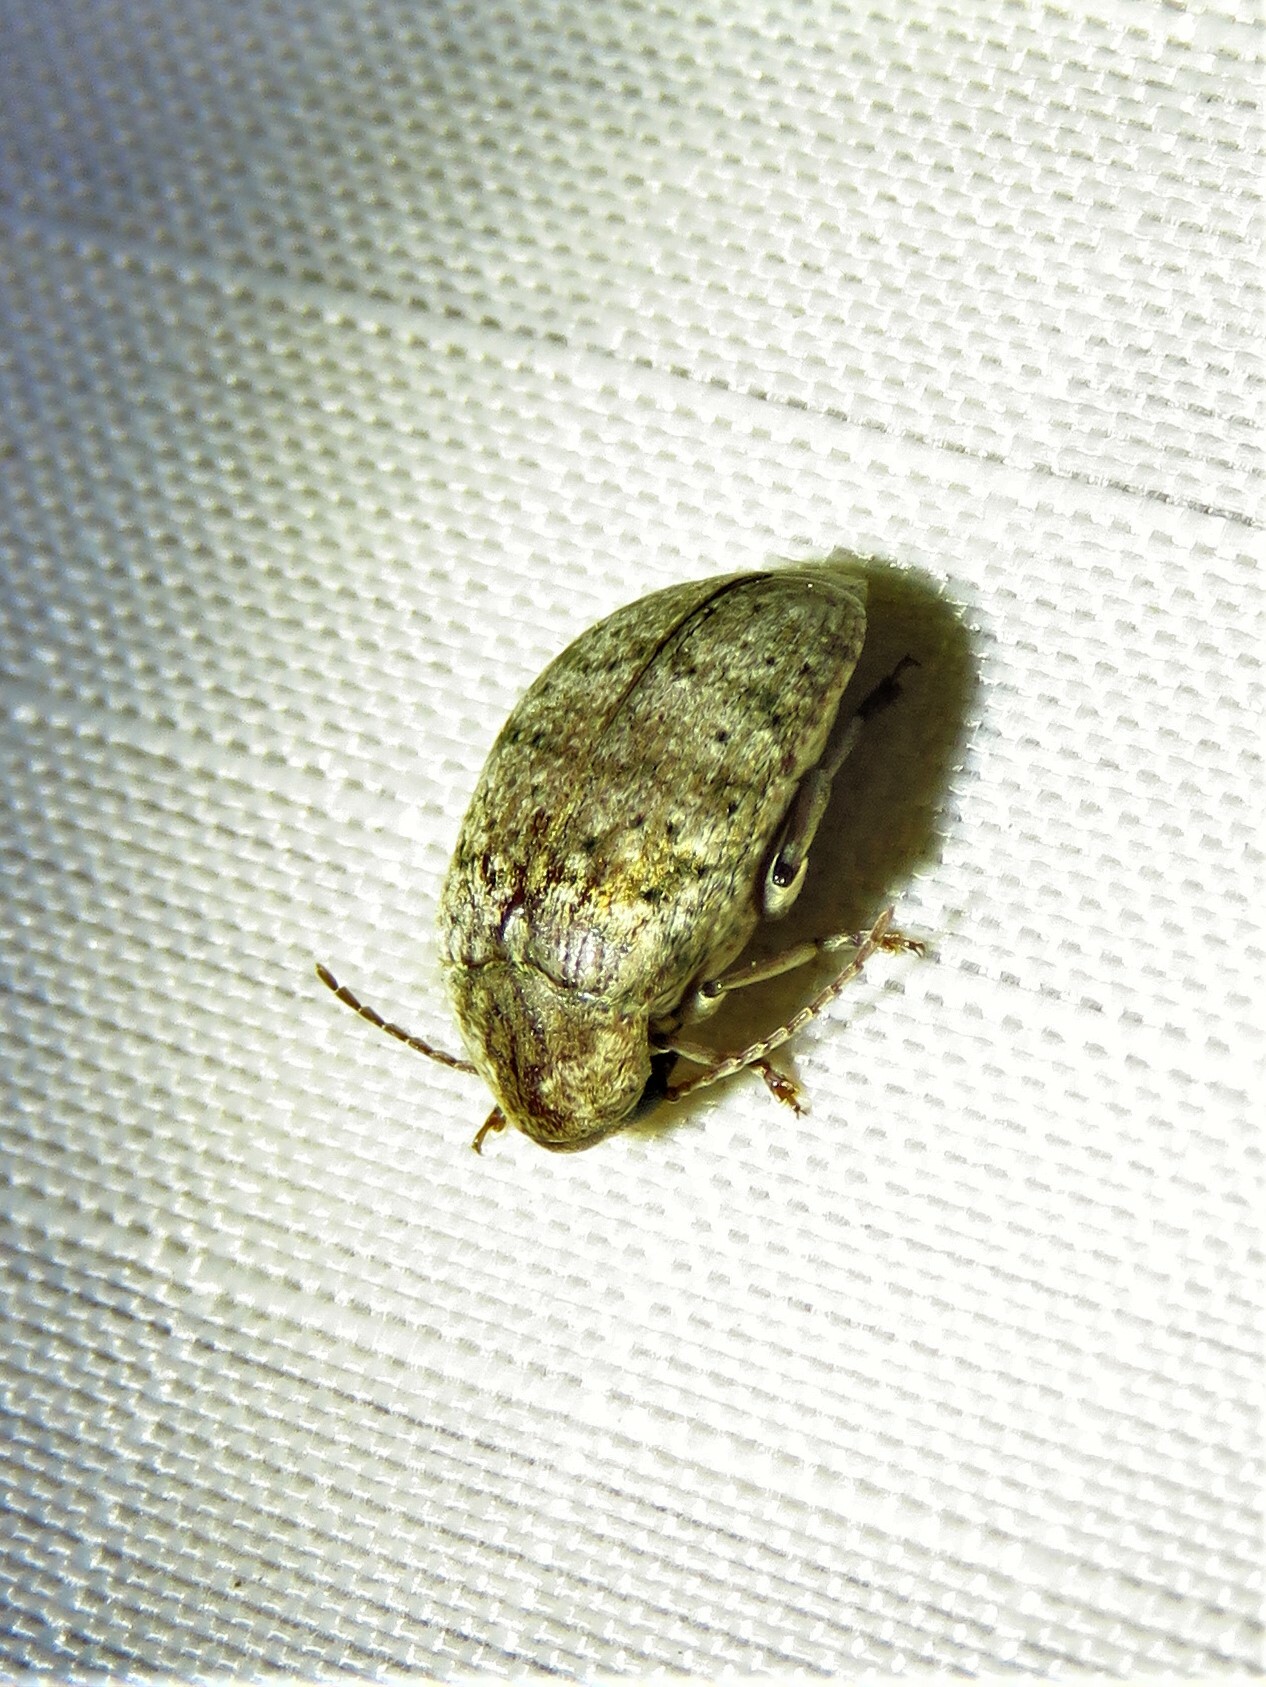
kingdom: Animalia
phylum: Arthropoda
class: Insecta
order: Coleoptera
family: Chrysomelidae
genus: Amblycerus
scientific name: Amblycerus robiniae
